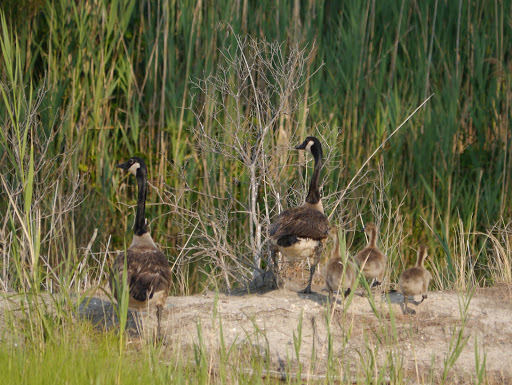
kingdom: Animalia
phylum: Chordata
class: Aves
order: Anseriformes
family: Anatidae
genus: Branta
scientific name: Branta canadensis
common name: Canada goose
